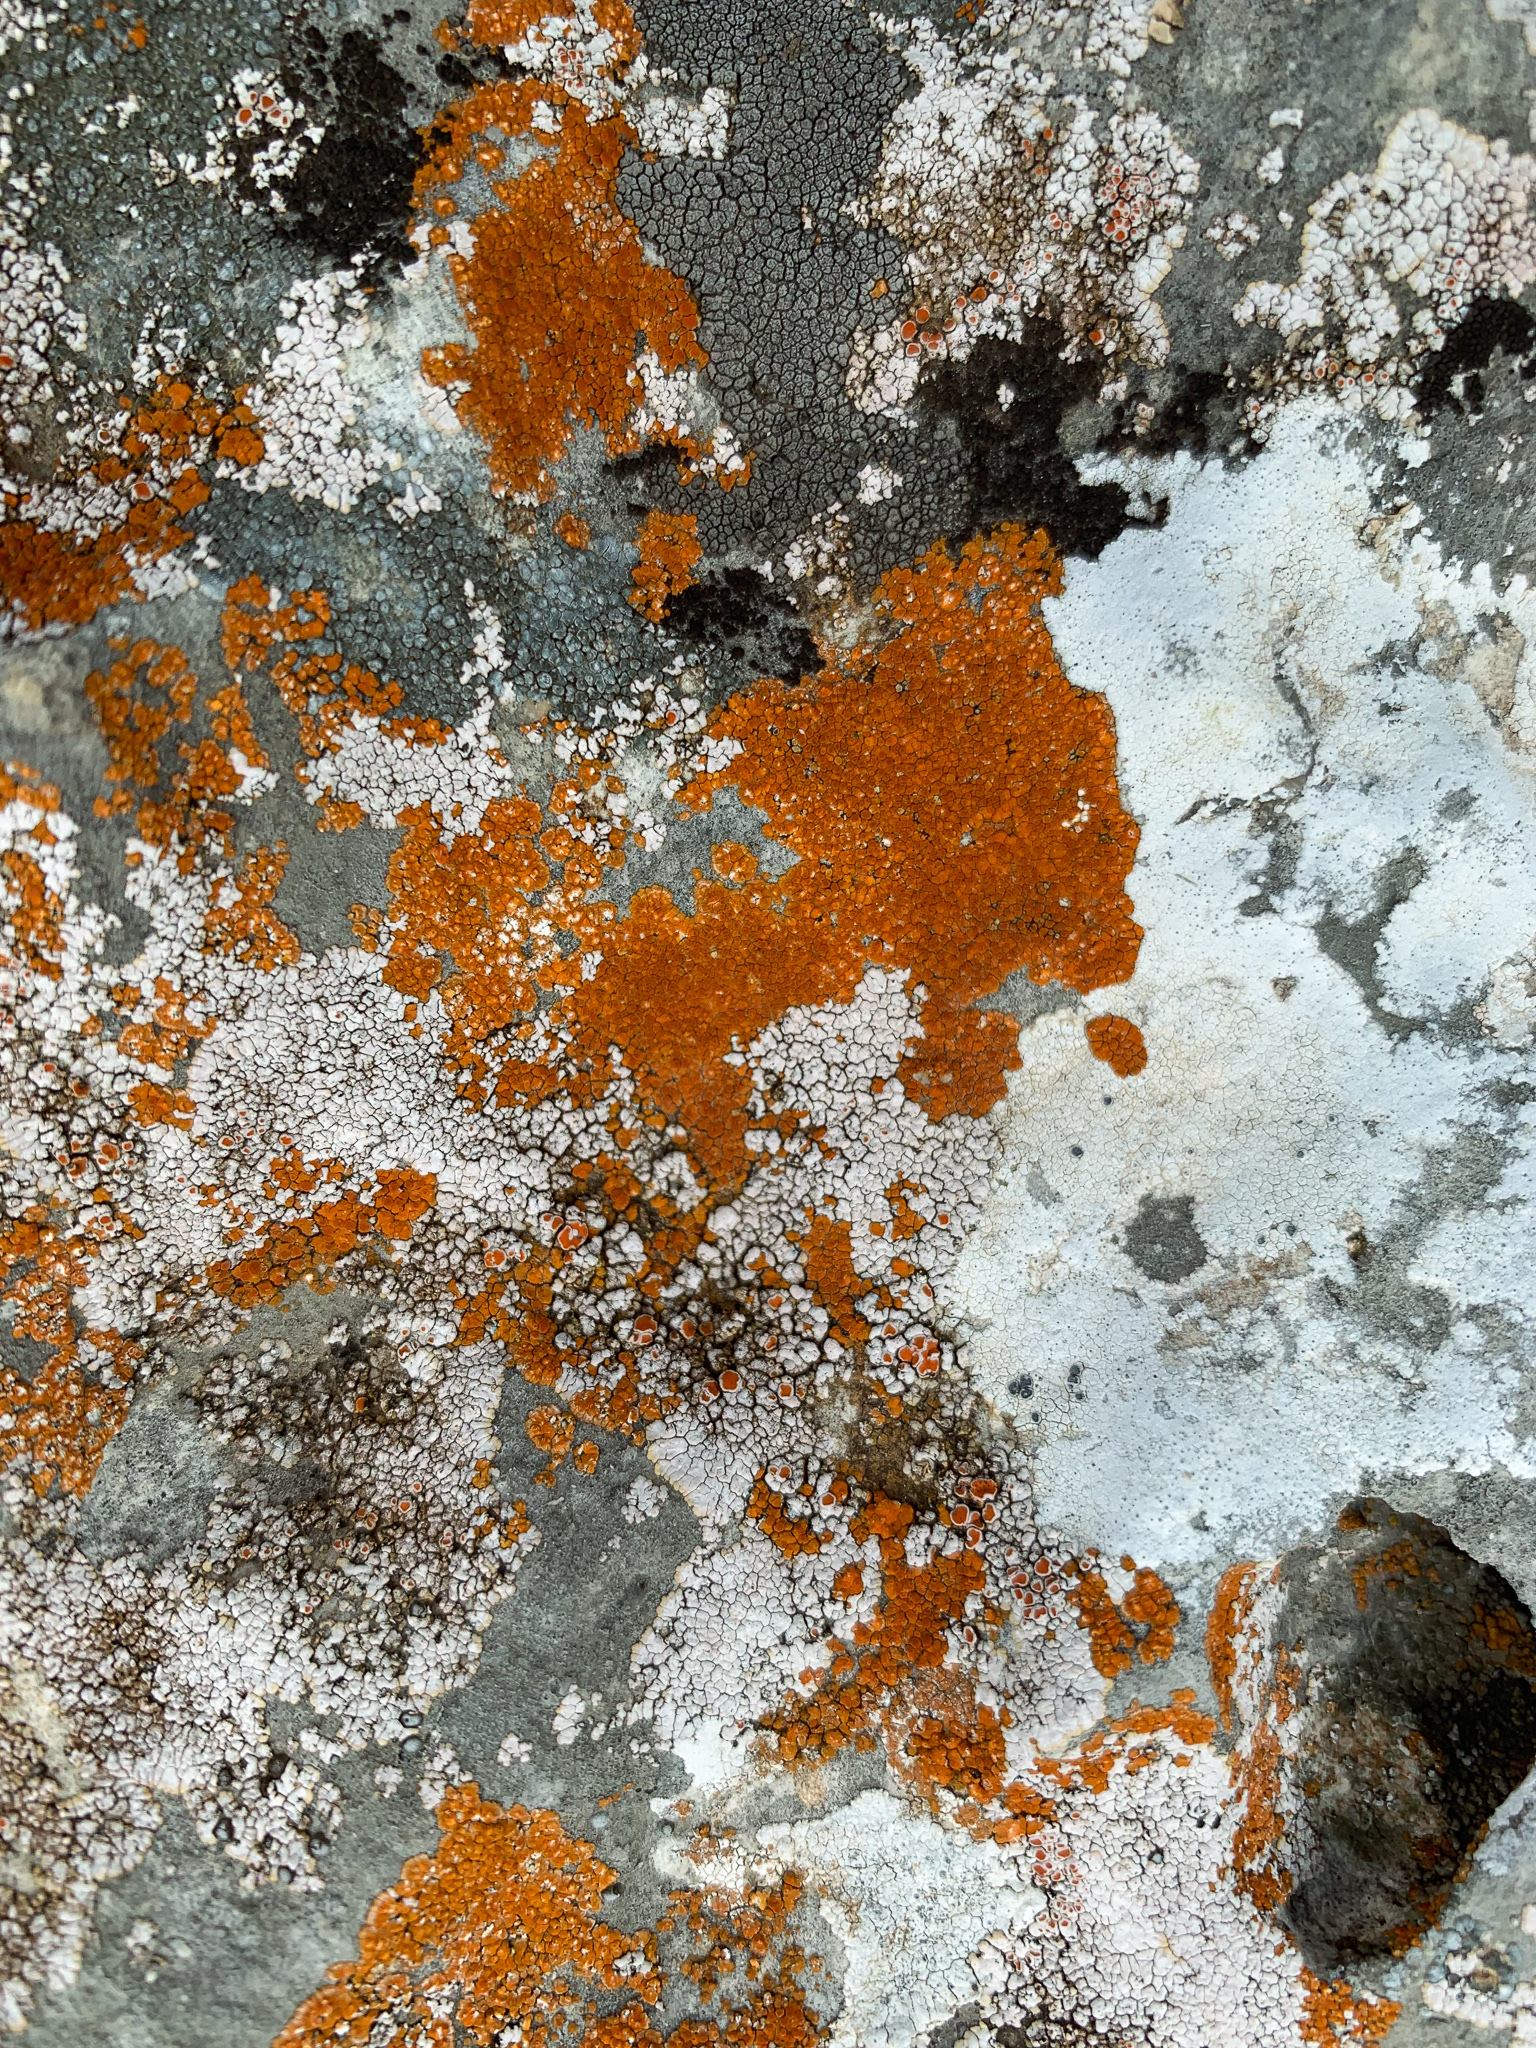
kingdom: Fungi
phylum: Ascomycota
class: Lecanoromycetes
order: Teloschistales
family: Teloschistaceae
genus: Calogaya
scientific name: Calogaya saxicola
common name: Rock jewel lichen
